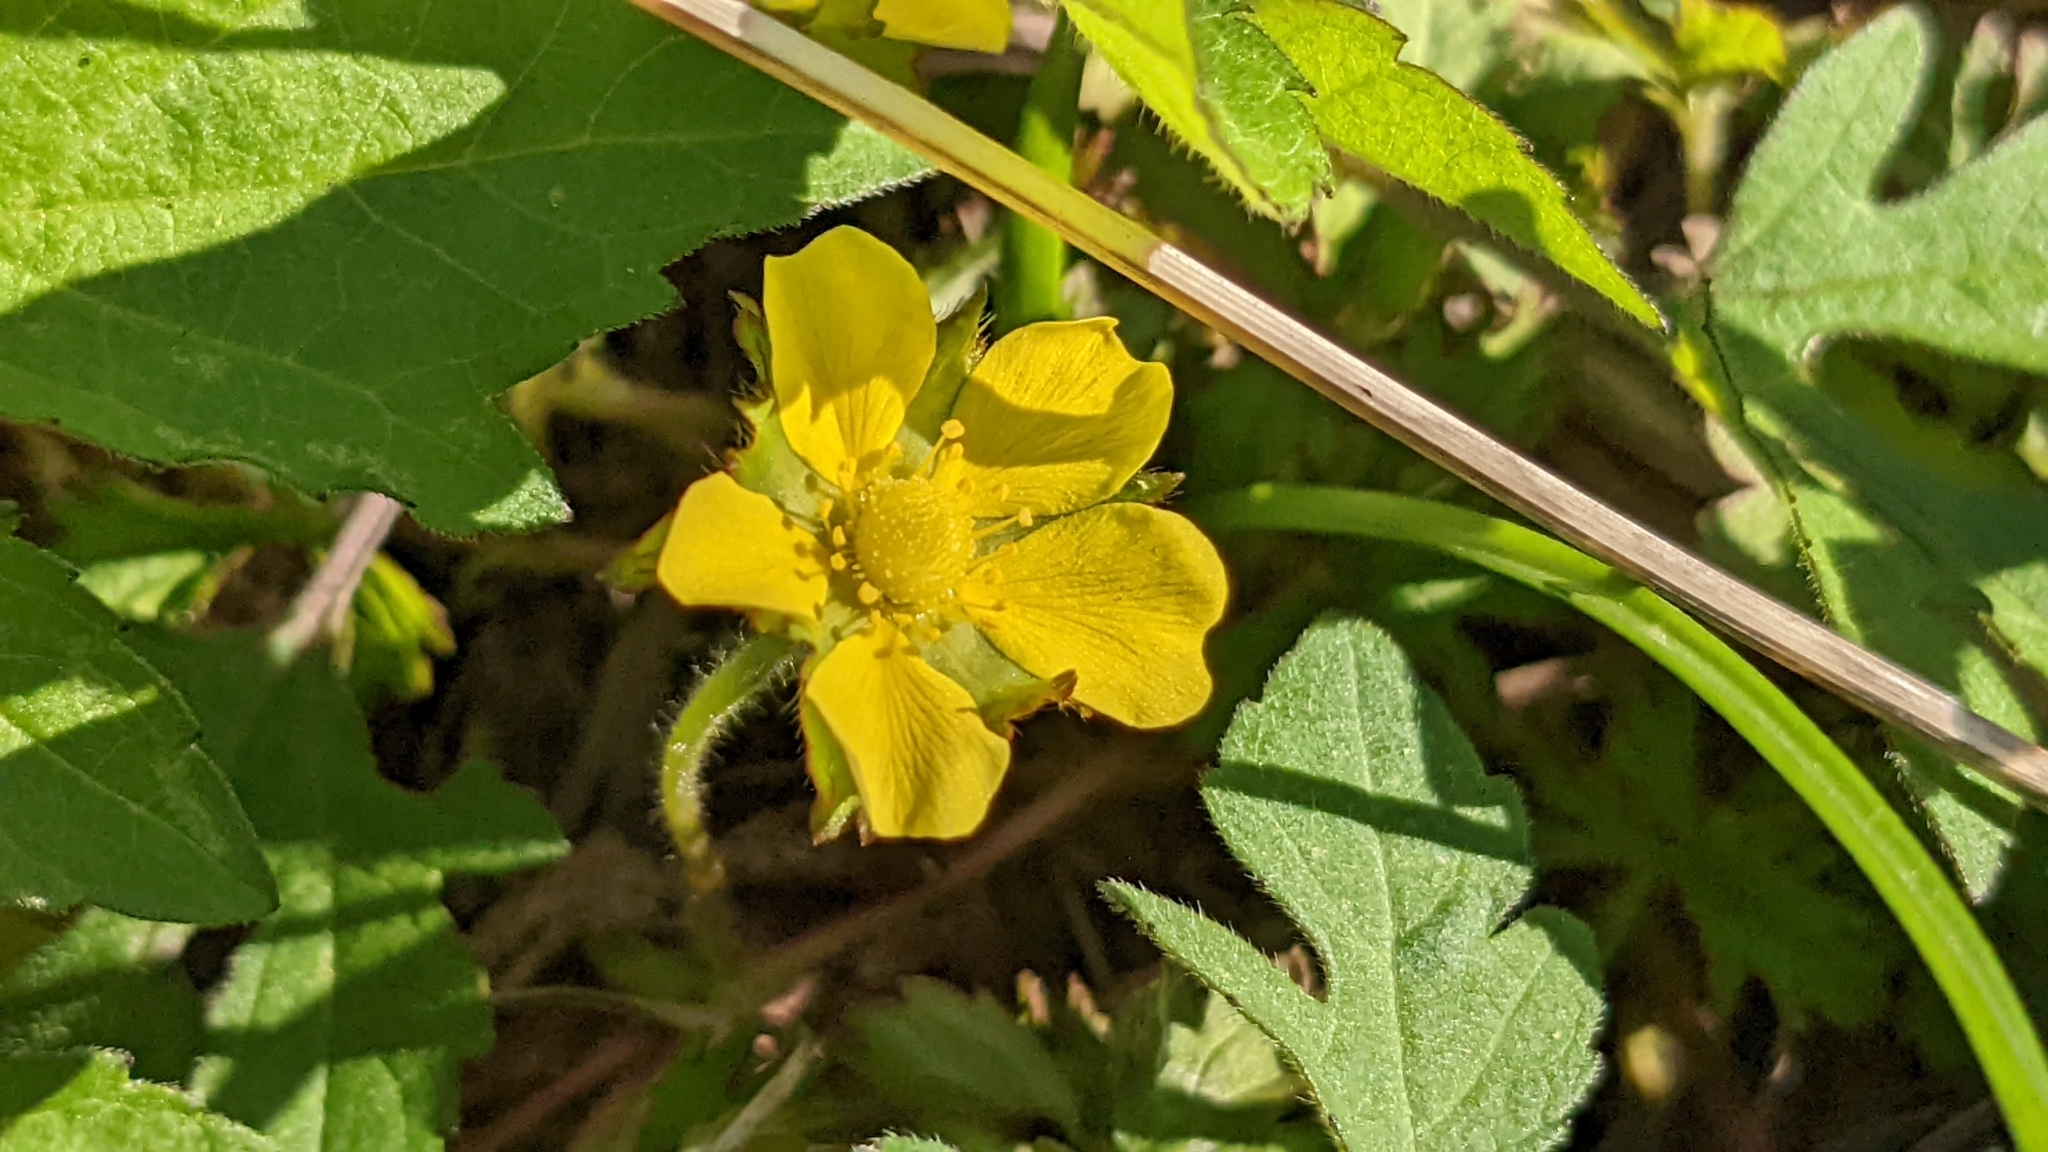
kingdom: Plantae
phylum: Tracheophyta
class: Magnoliopsida
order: Rosales
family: Rosaceae
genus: Potentilla
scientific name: Potentilla indica
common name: Yellow-flowered strawberry
